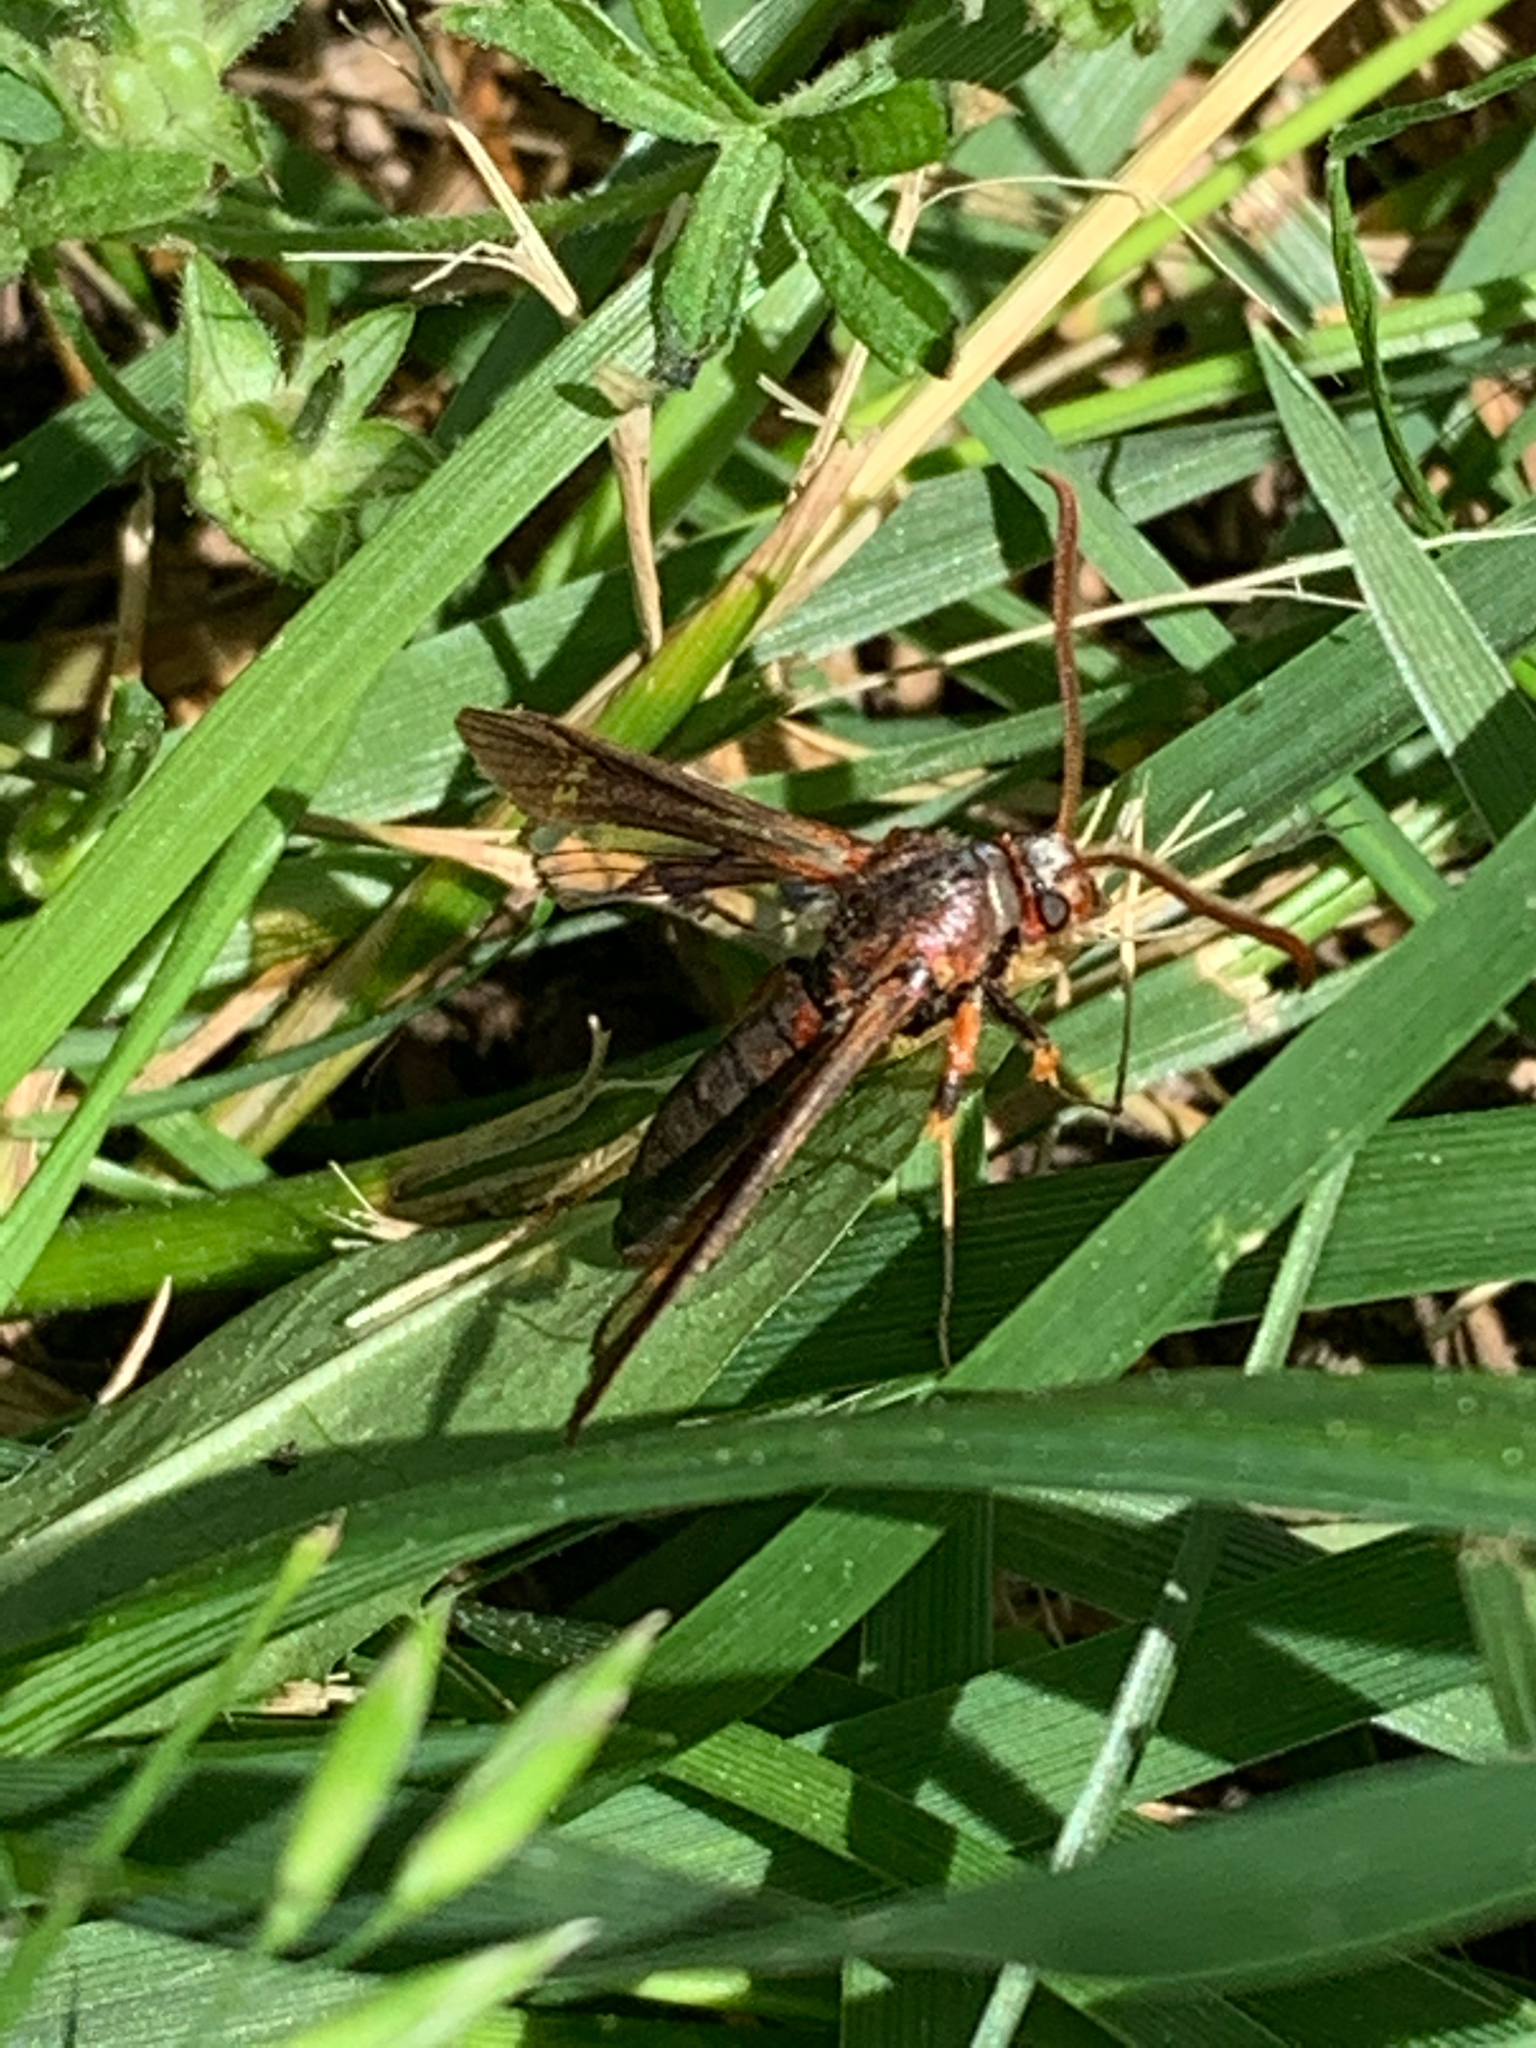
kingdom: Animalia
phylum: Arthropoda
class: Insecta
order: Lepidoptera
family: Sesiidae
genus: Podosesia
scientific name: Podosesia syringae
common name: Lilac borer moth
